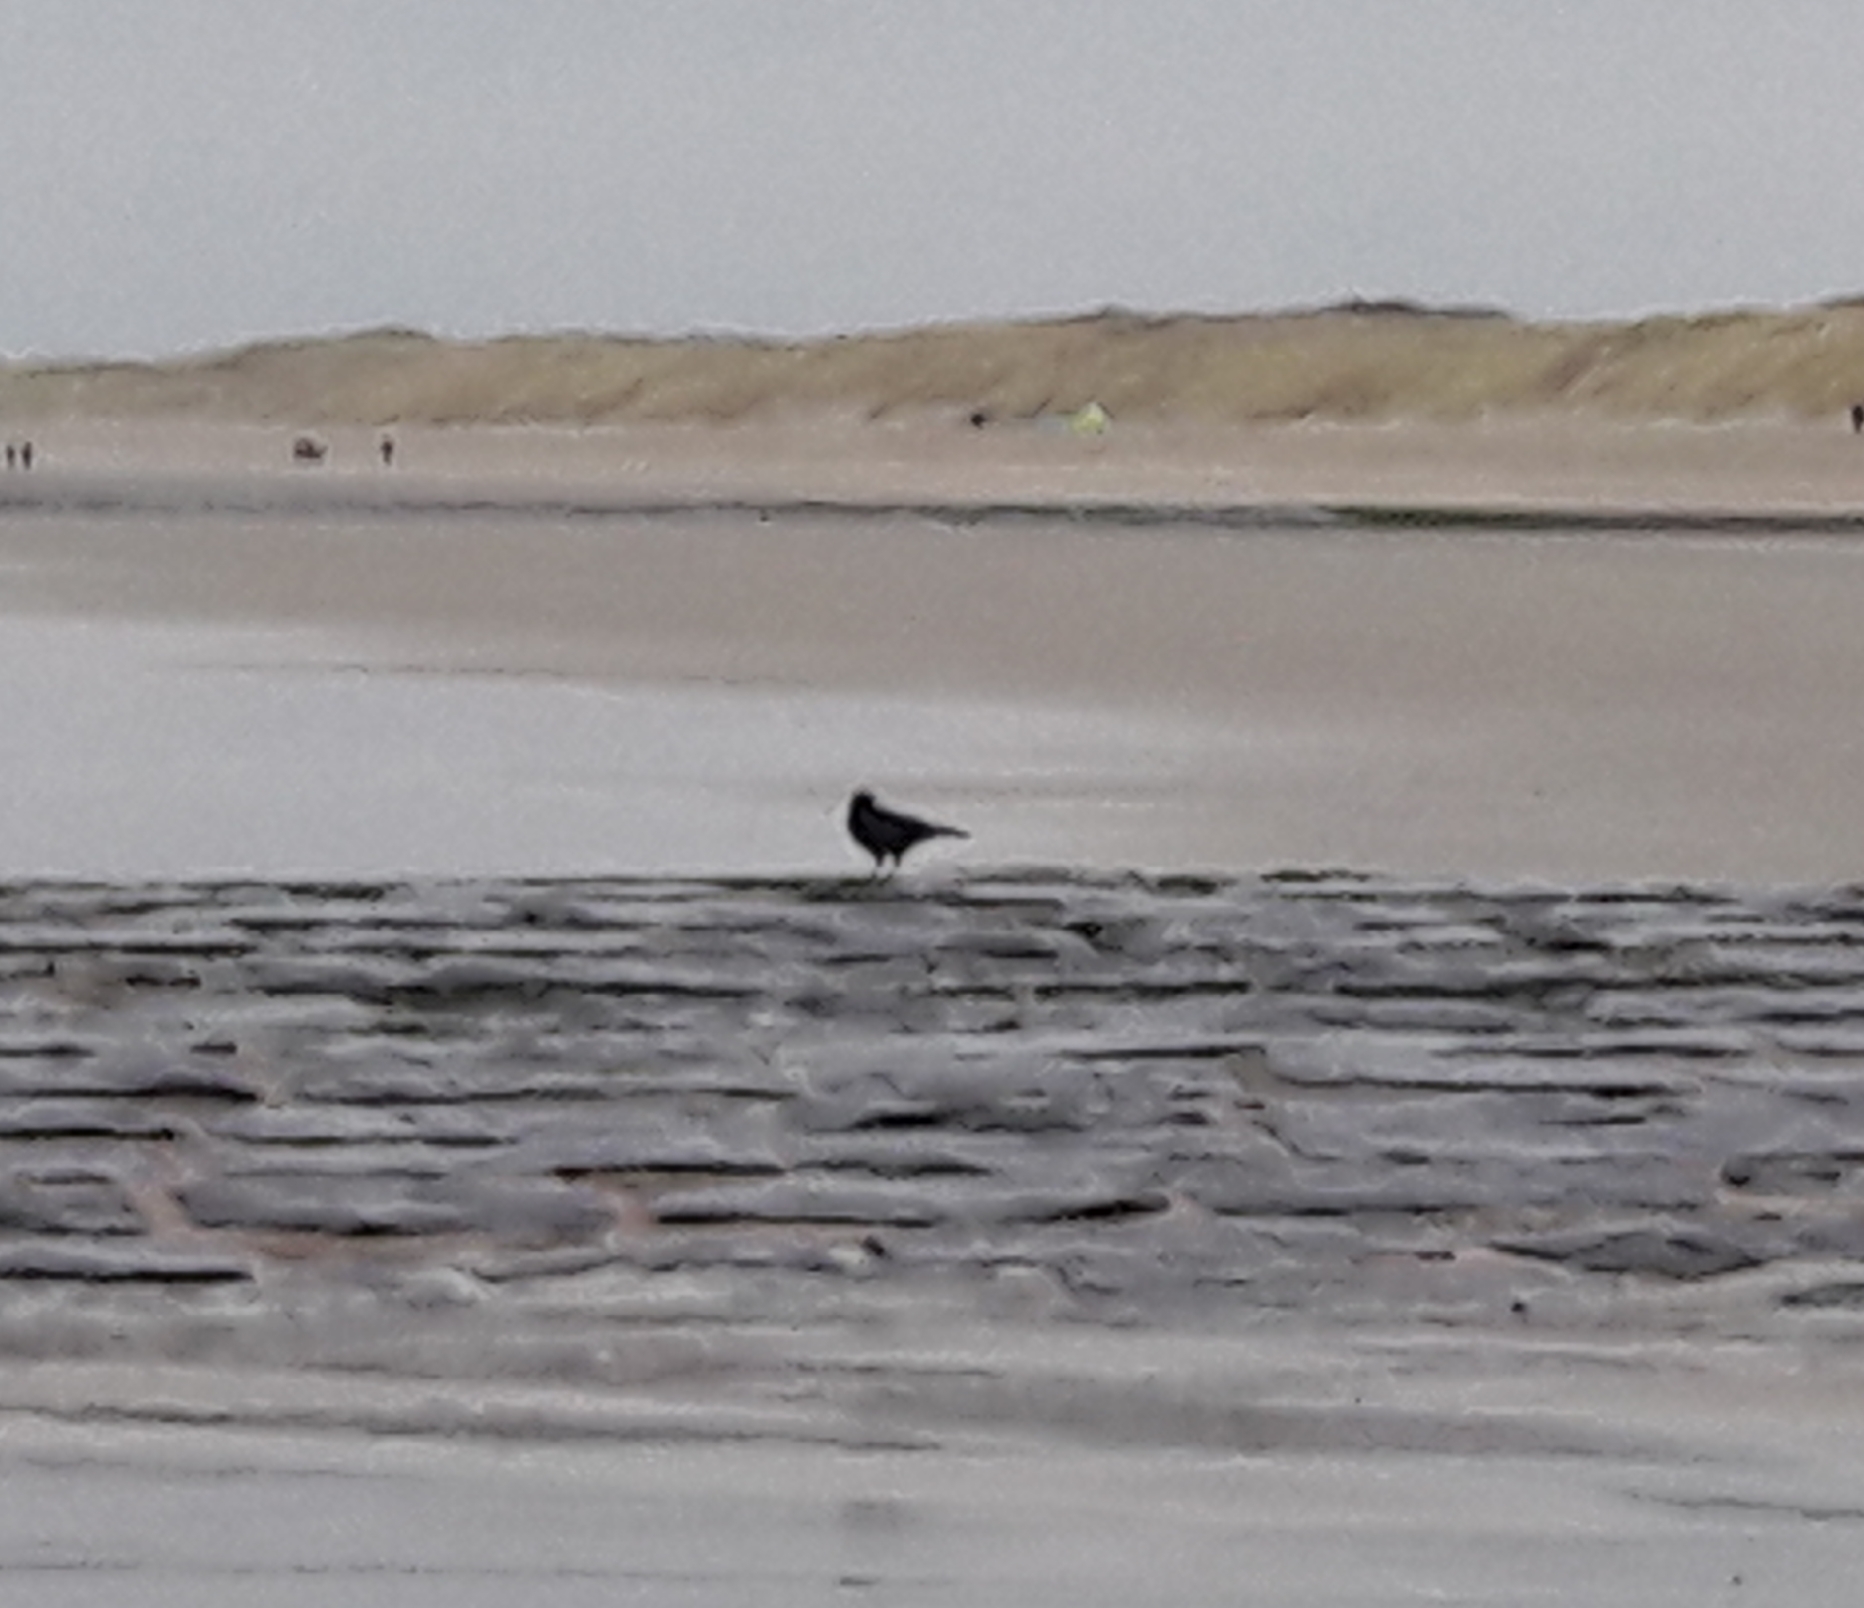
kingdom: Animalia
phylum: Chordata
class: Aves
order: Passeriformes
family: Corvidae
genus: Corvus
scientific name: Corvus corone
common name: Carrion crow
